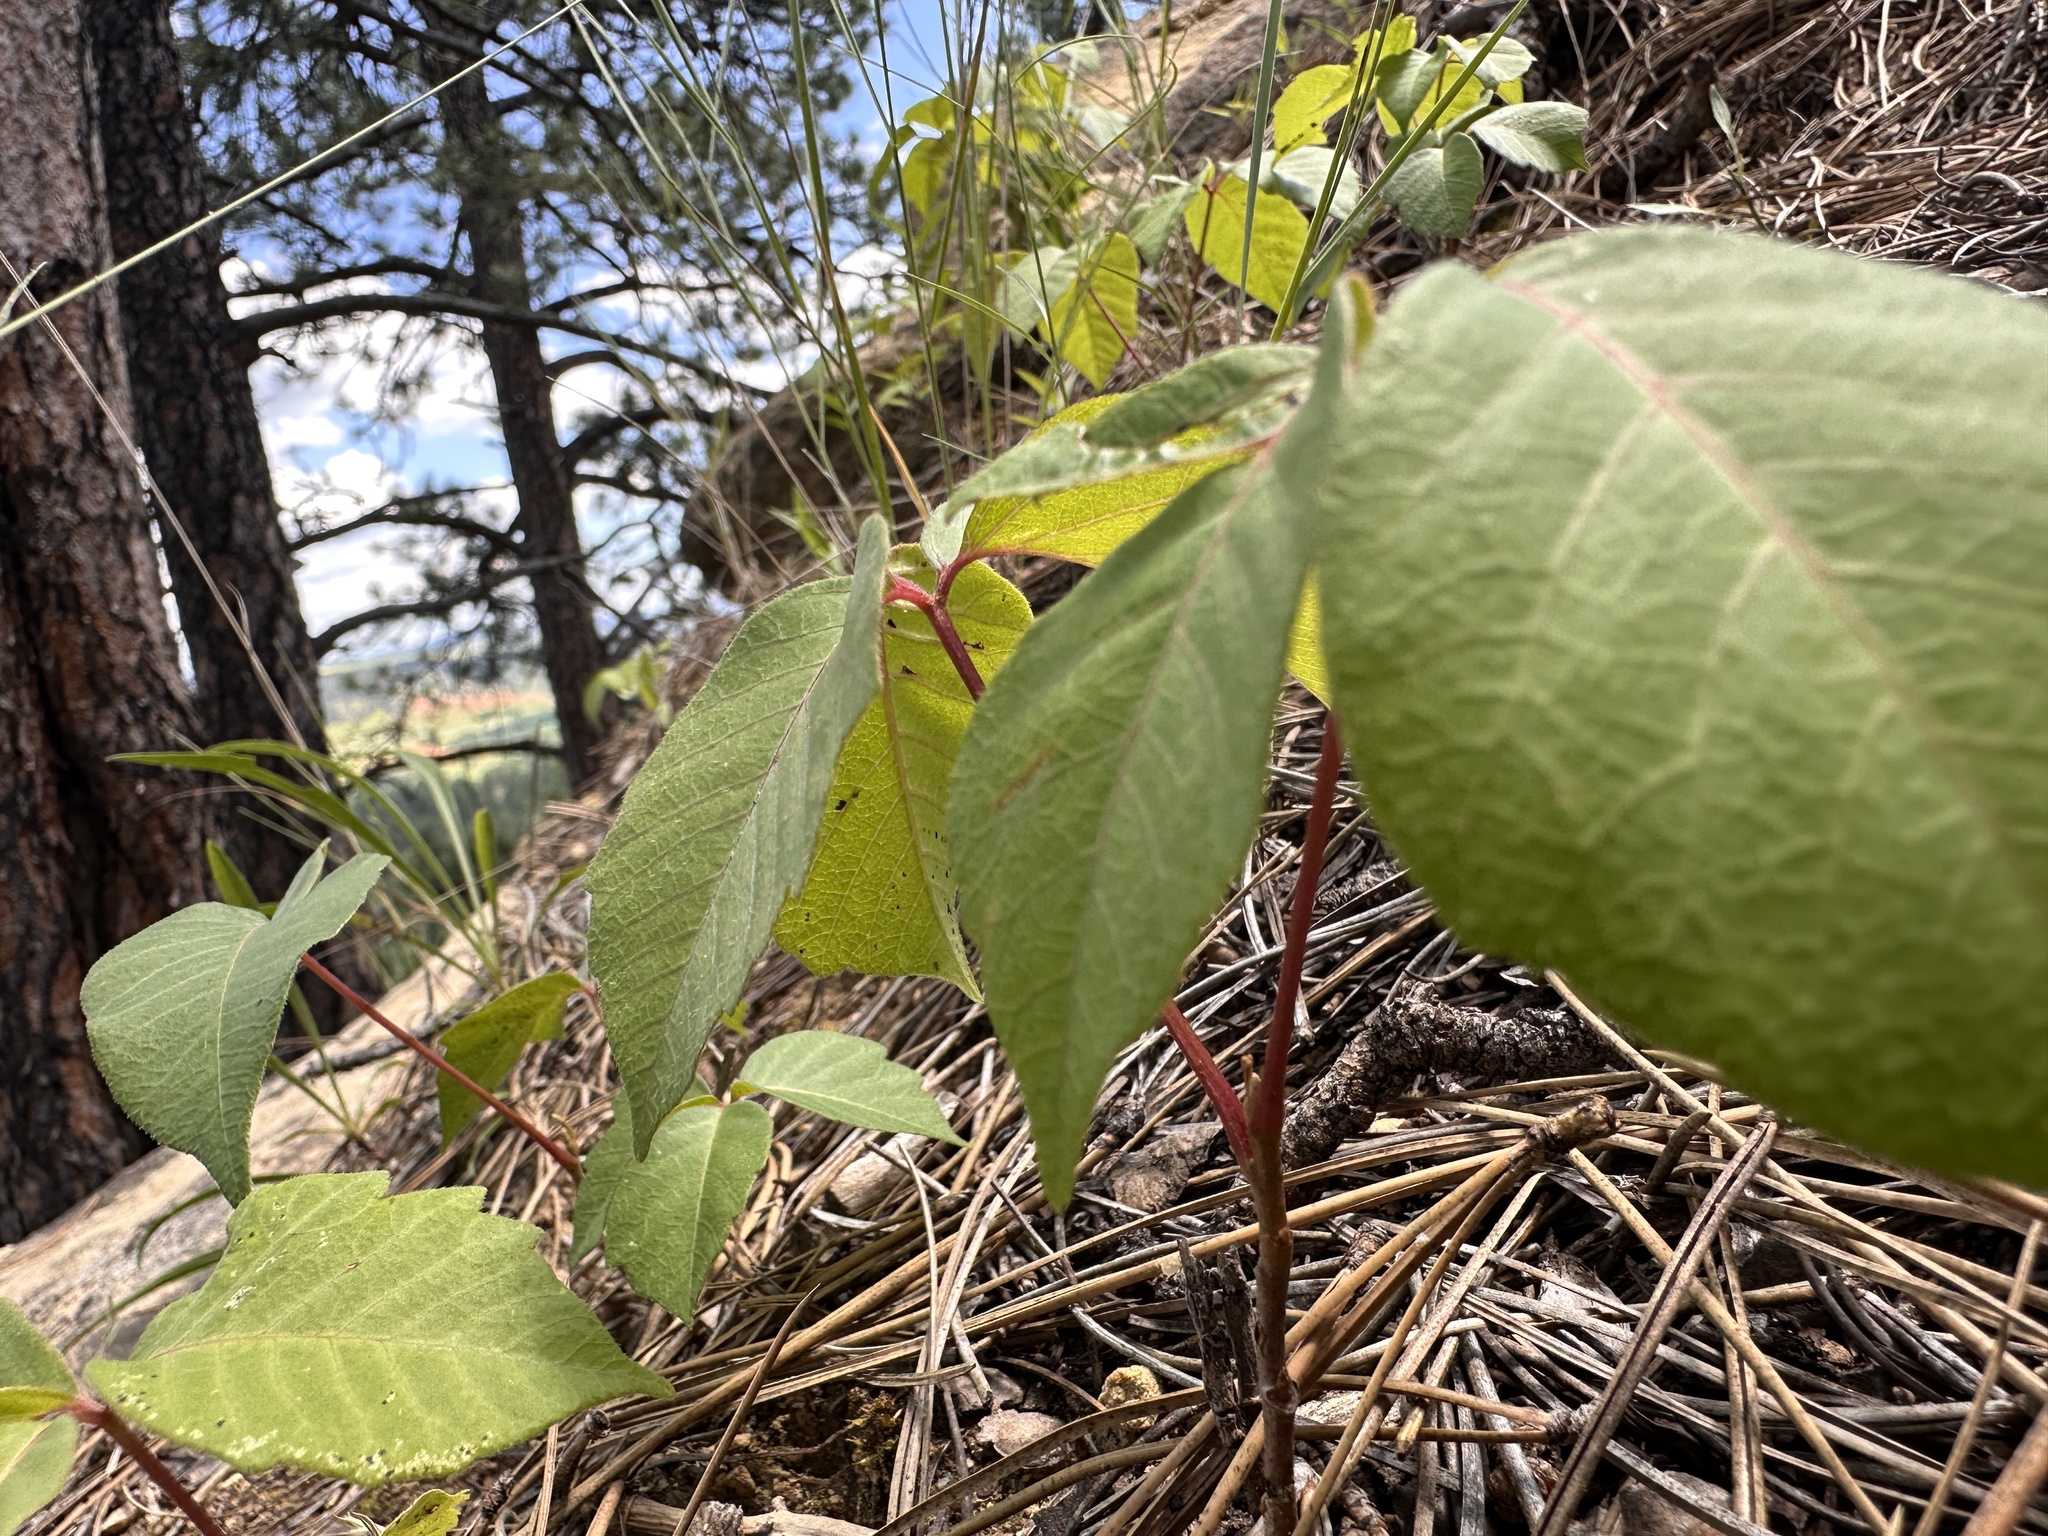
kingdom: Plantae
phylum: Tracheophyta
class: Magnoliopsida
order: Sapindales
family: Anacardiaceae
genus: Toxicodendron
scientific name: Toxicodendron rydbergii
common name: Rydberg's poison-ivy
